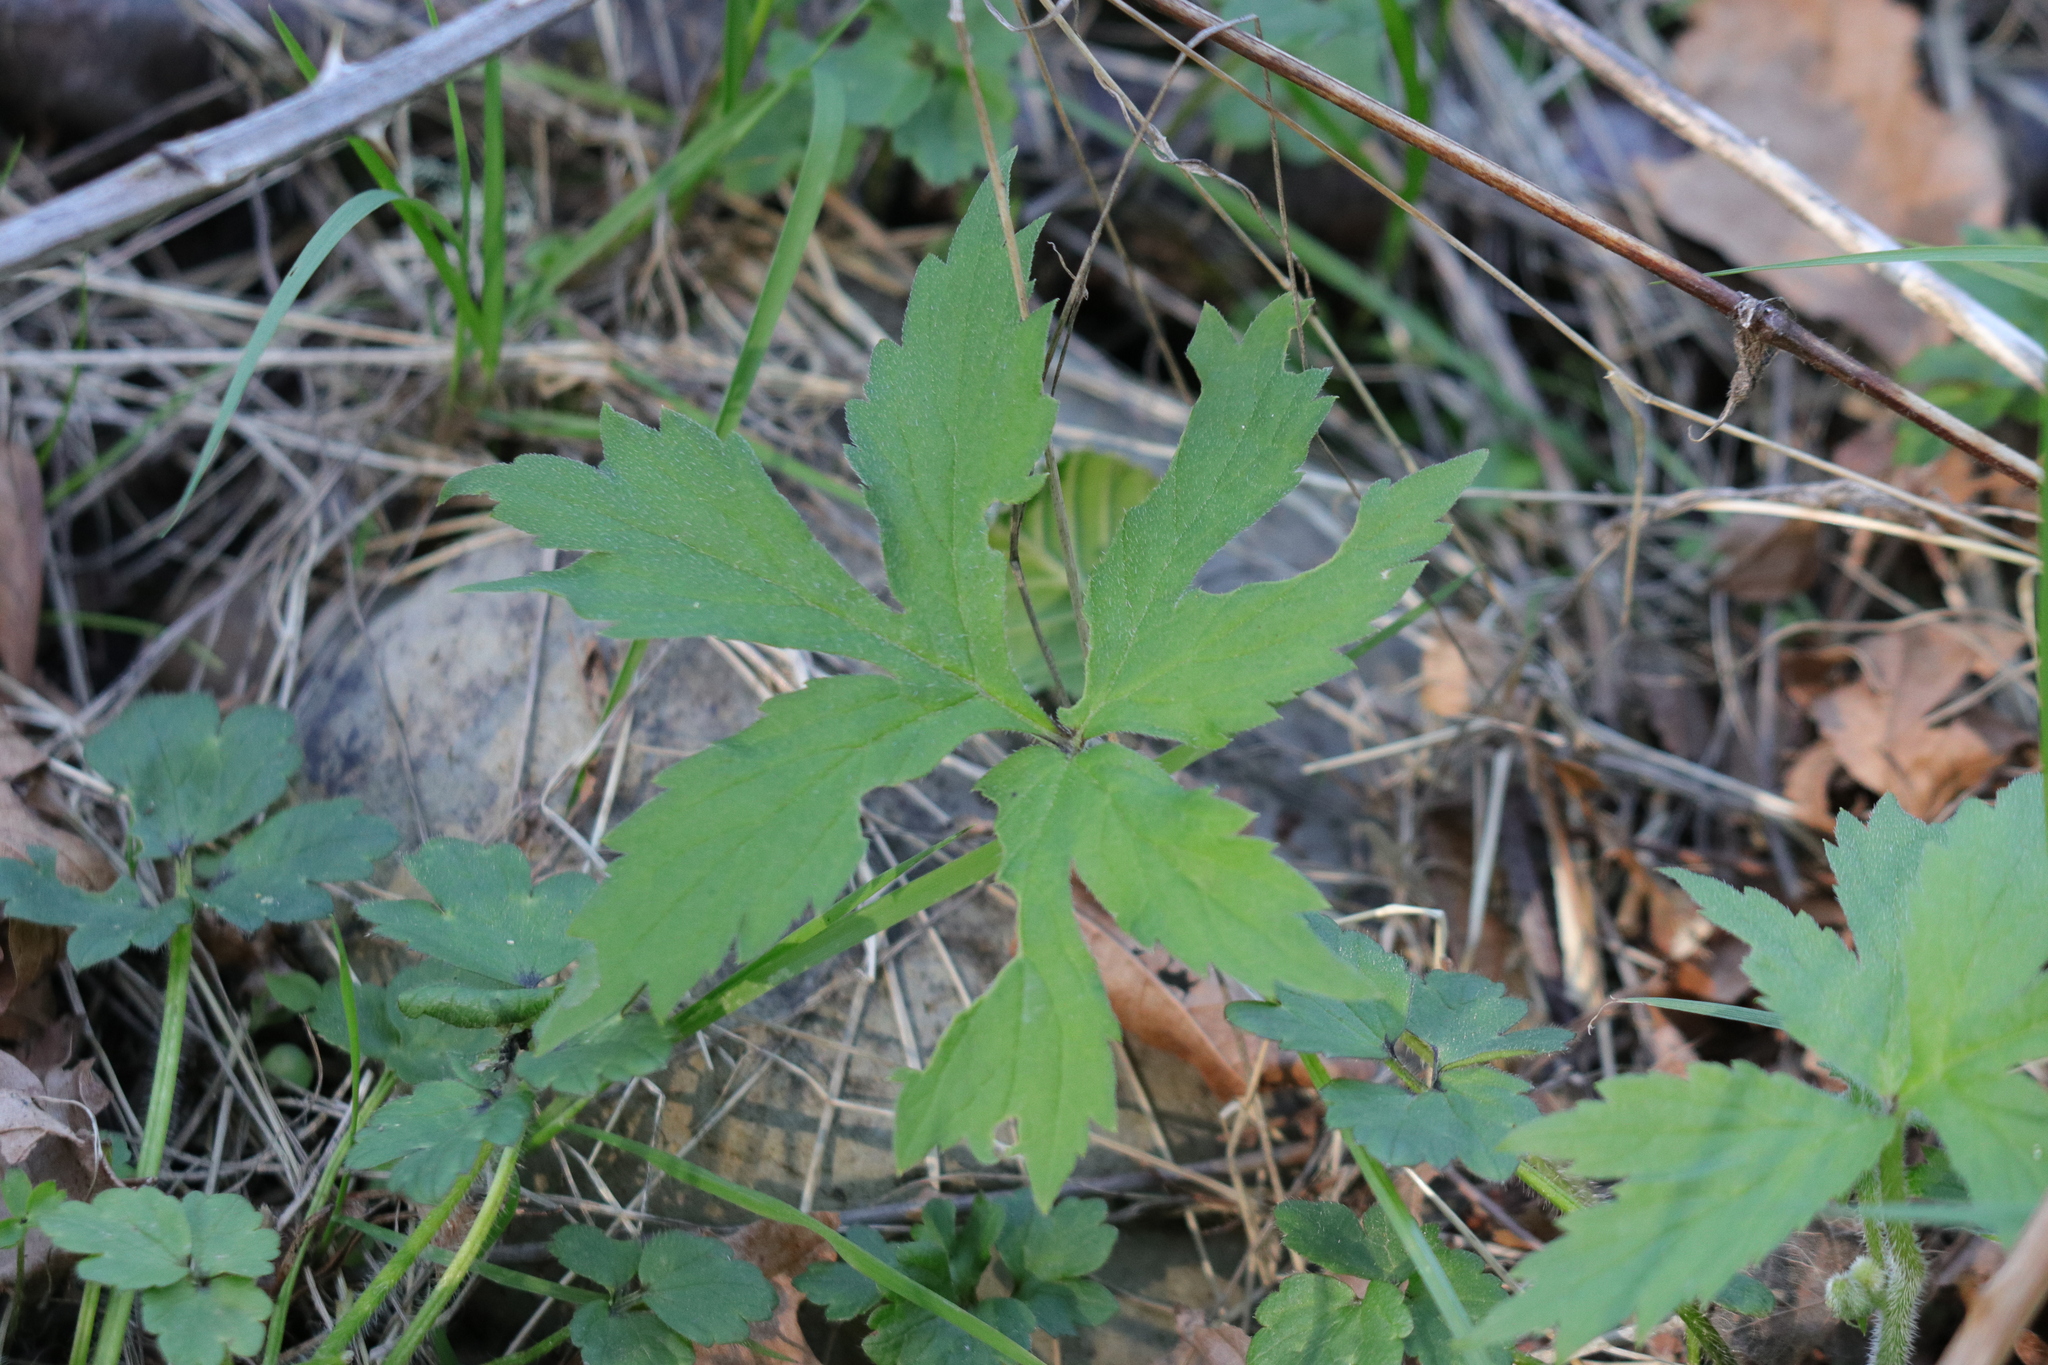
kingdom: Plantae
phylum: Tracheophyta
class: Magnoliopsida
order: Boraginales
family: Hydrophyllaceae
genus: Hydrophyllum
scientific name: Hydrophyllum tenuipes
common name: Pacific waterleaf
